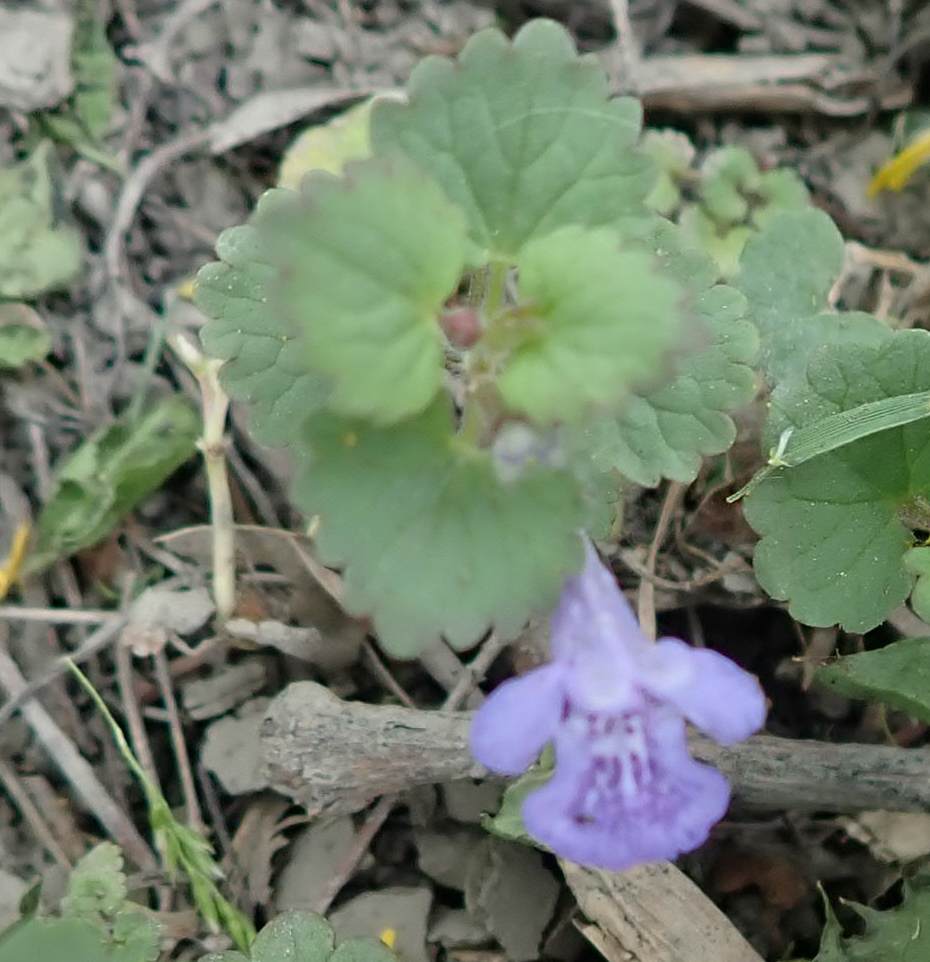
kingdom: Plantae
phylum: Tracheophyta
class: Magnoliopsida
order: Lamiales
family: Lamiaceae
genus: Glechoma
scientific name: Glechoma hederacea
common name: Ground ivy
